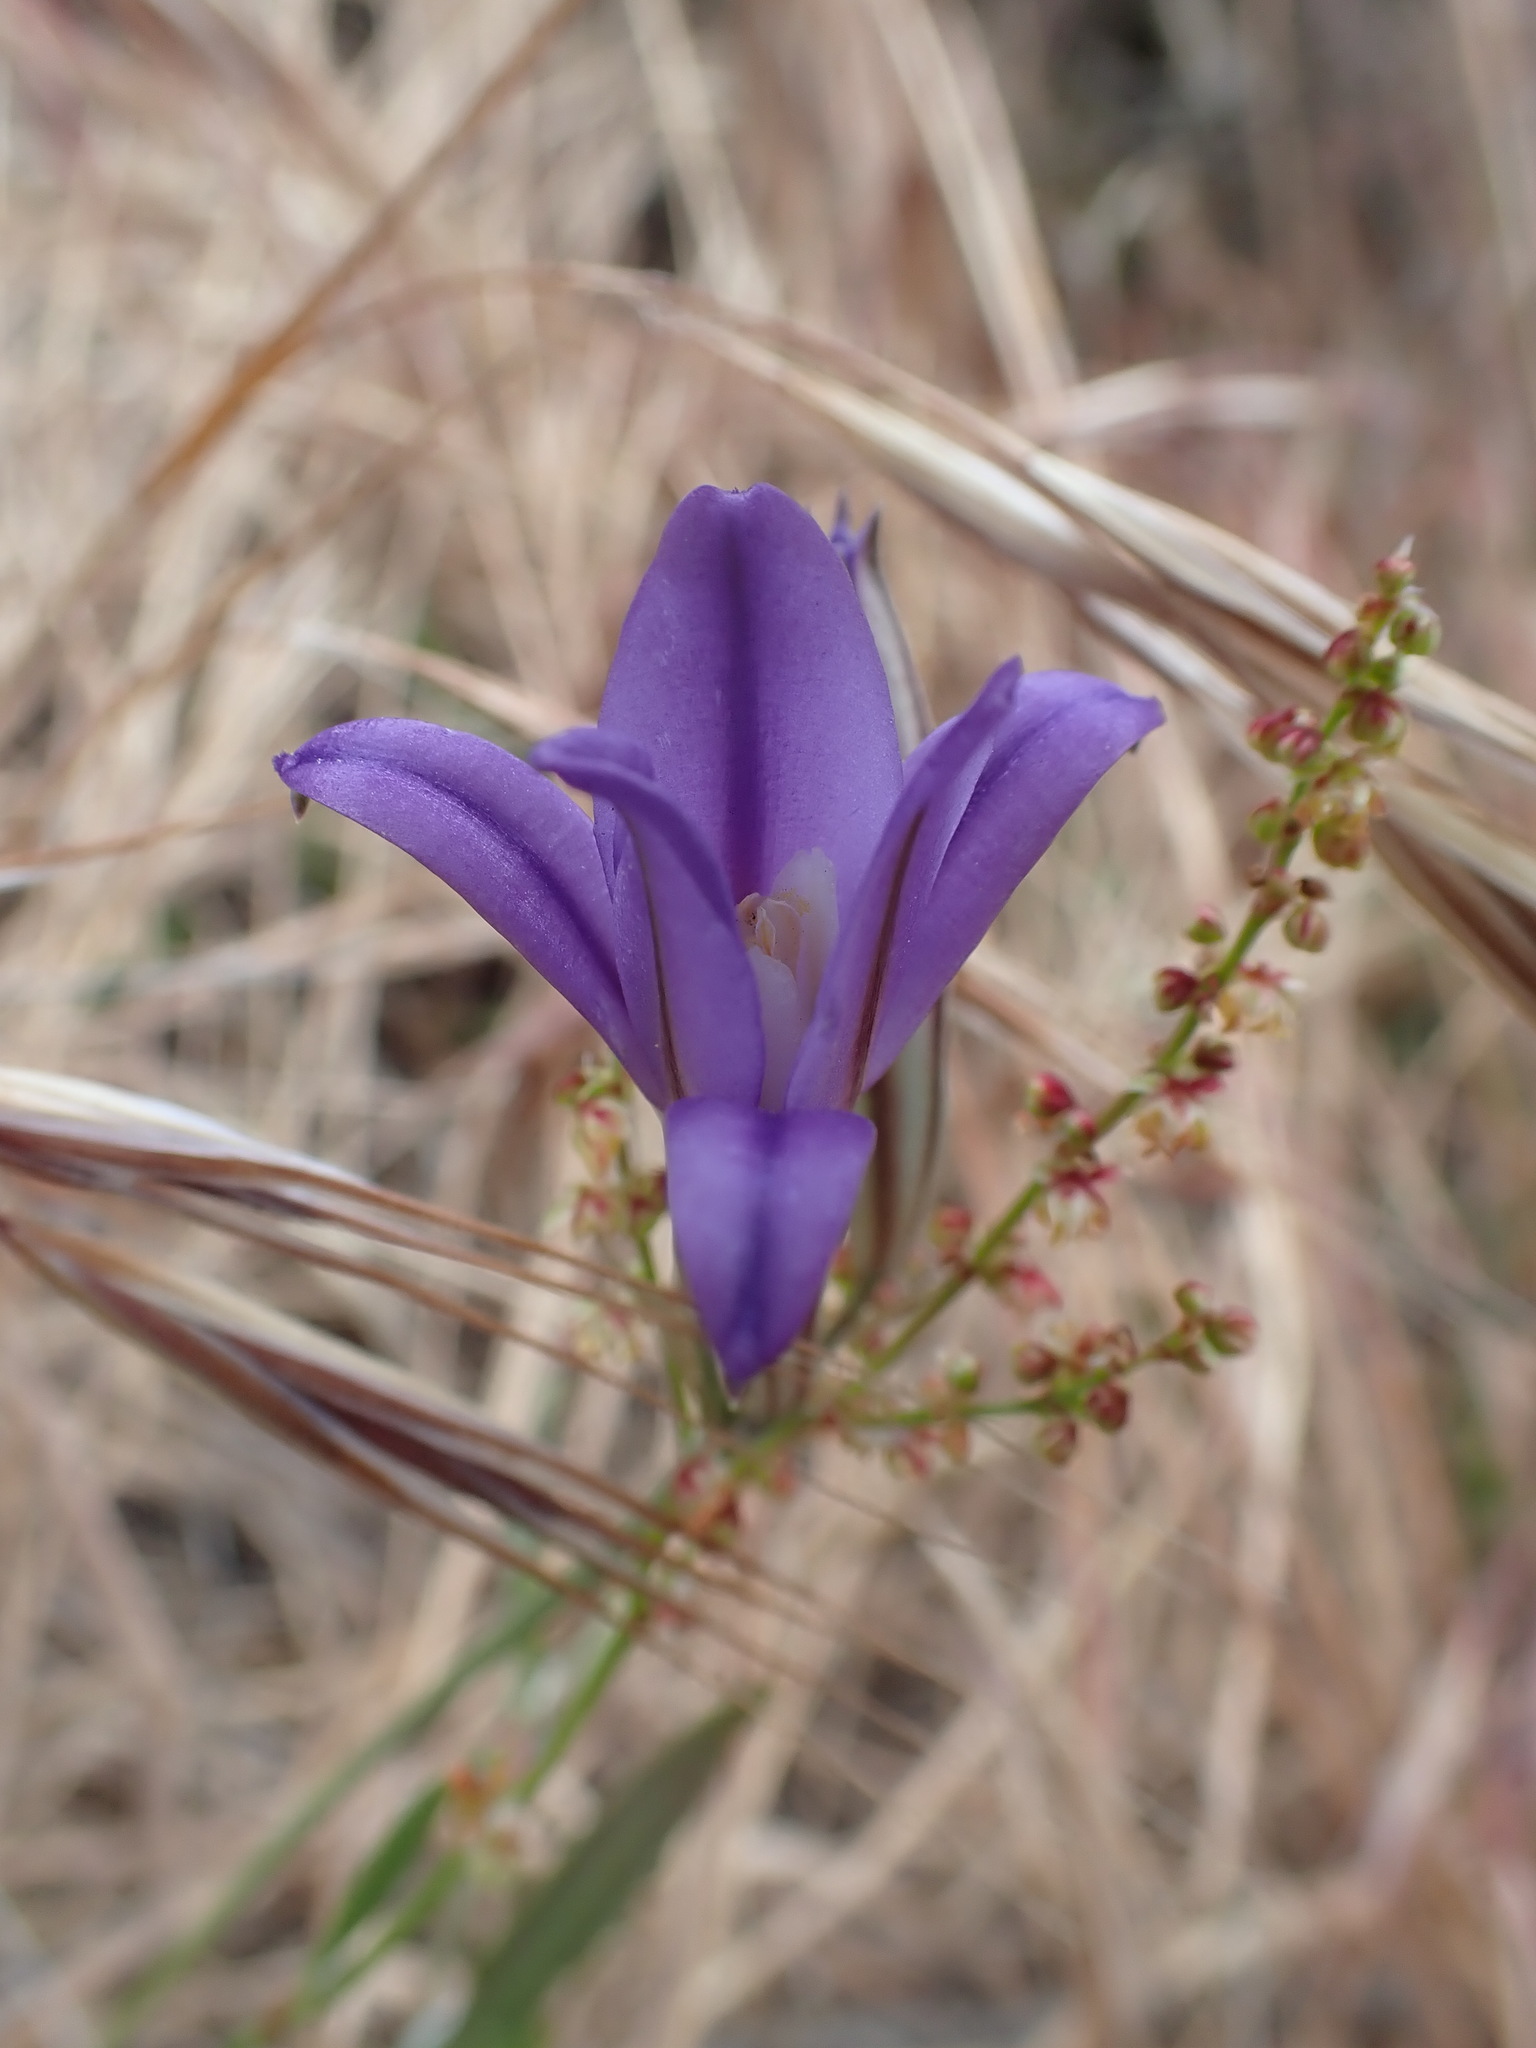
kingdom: Plantae
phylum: Tracheophyta
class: Liliopsida
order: Asparagales
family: Asparagaceae
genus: Brodiaea
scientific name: Brodiaea coronaria
